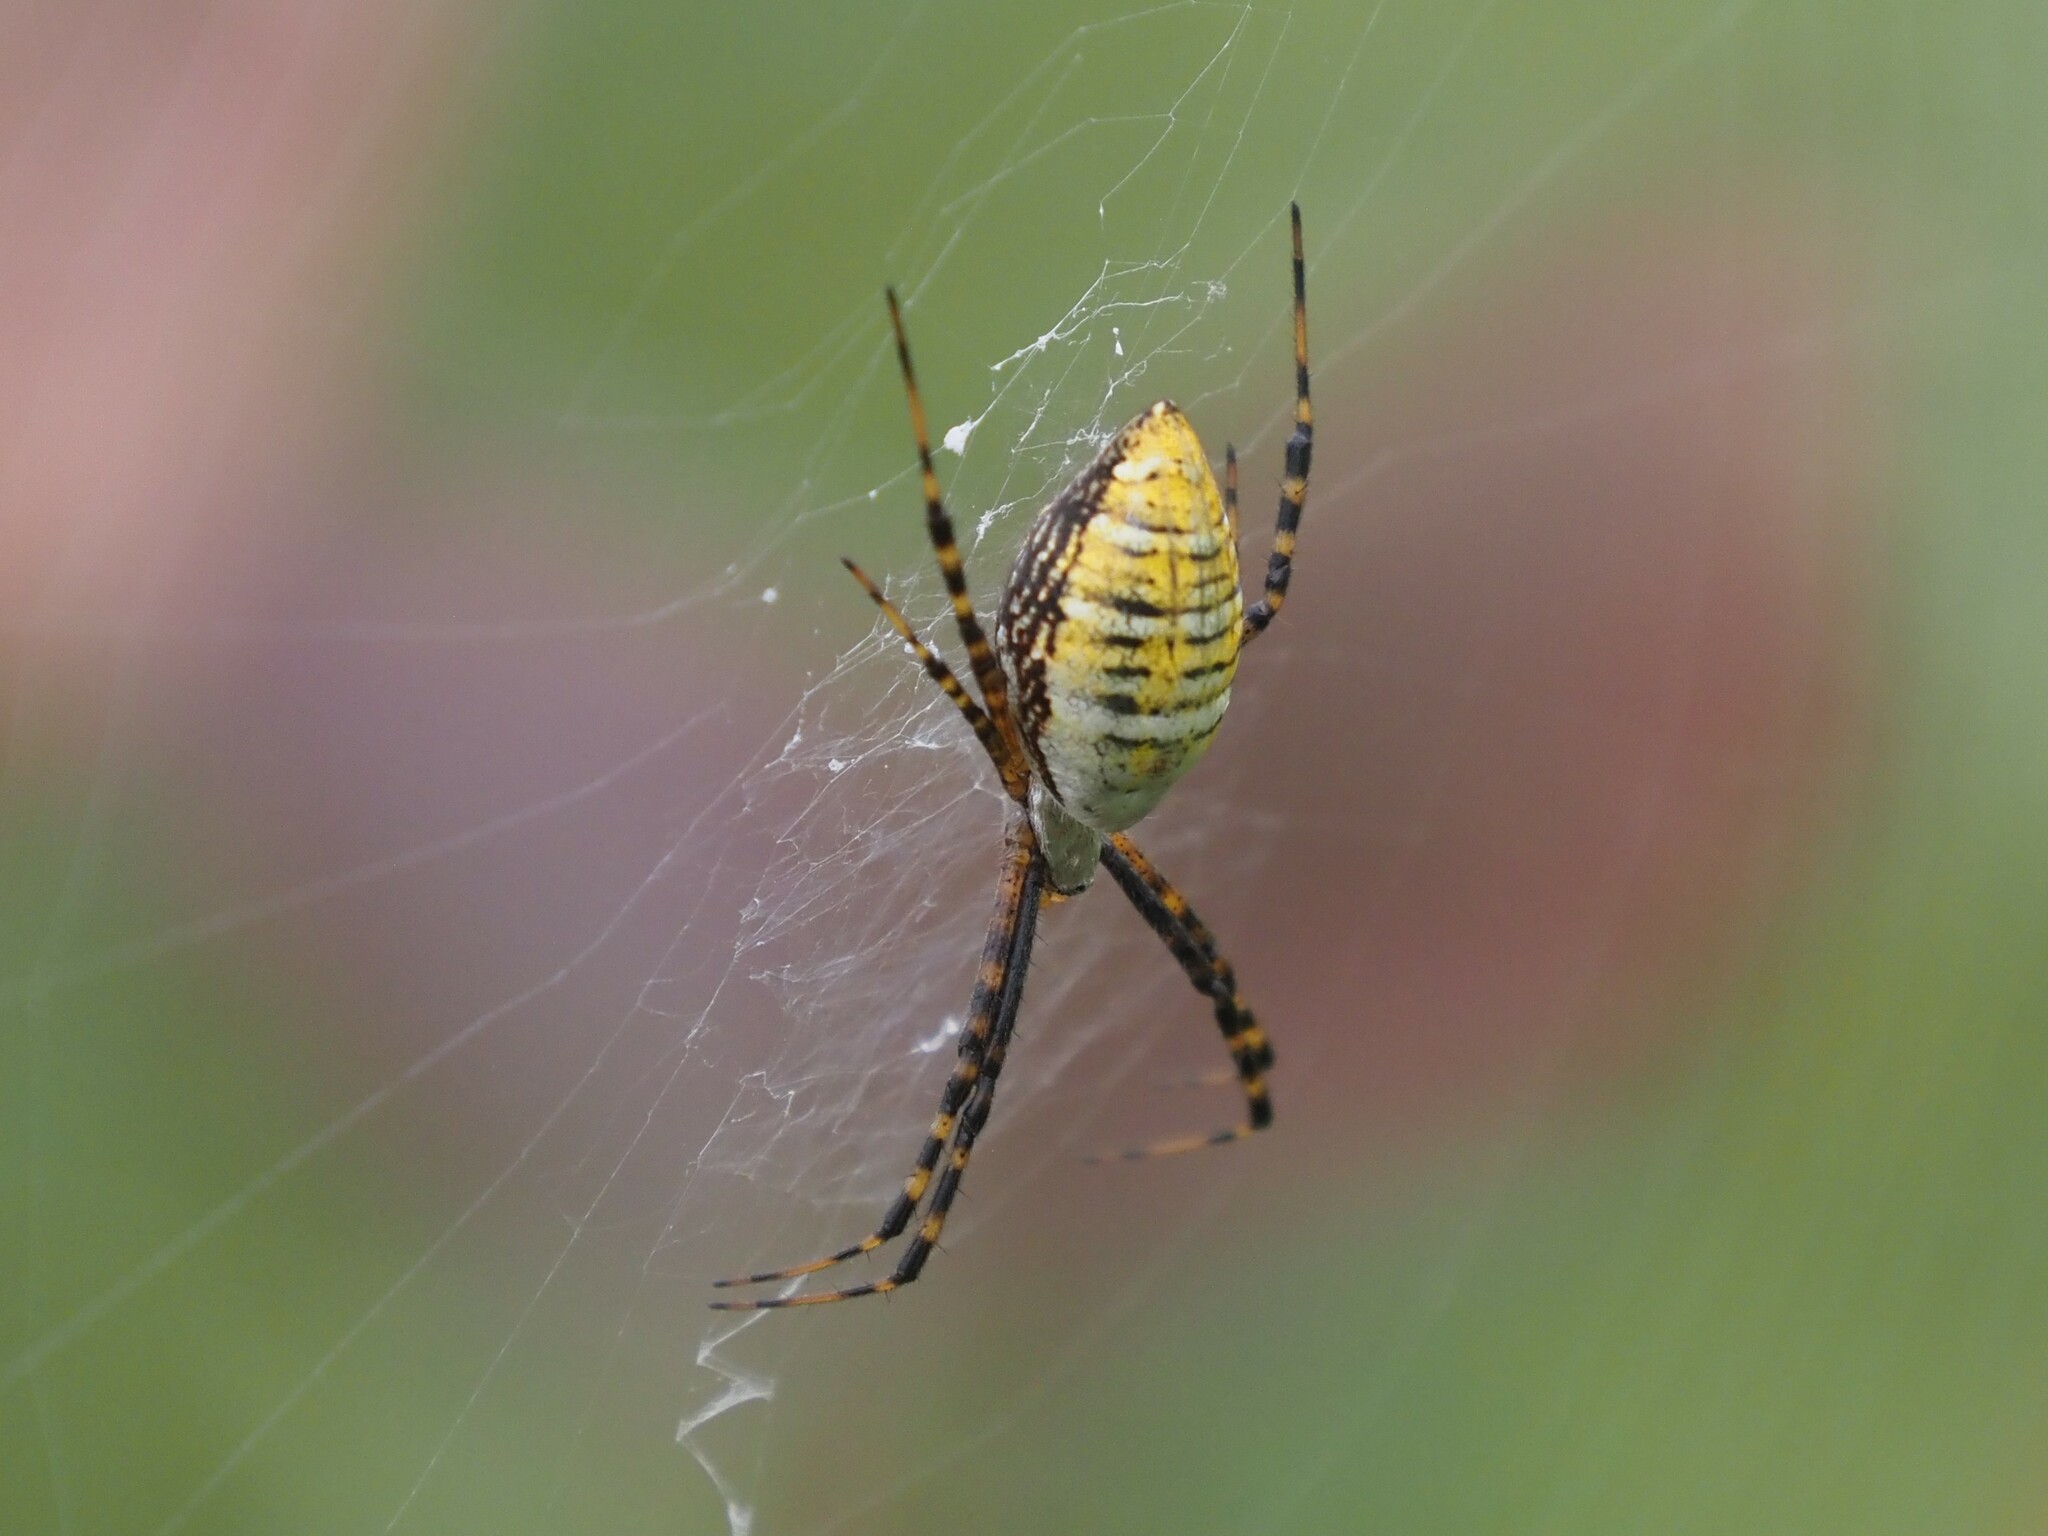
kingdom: Animalia
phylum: Arthropoda
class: Arachnida
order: Araneae
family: Araneidae
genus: Argiope
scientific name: Argiope trifasciata
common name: Banded garden spider
